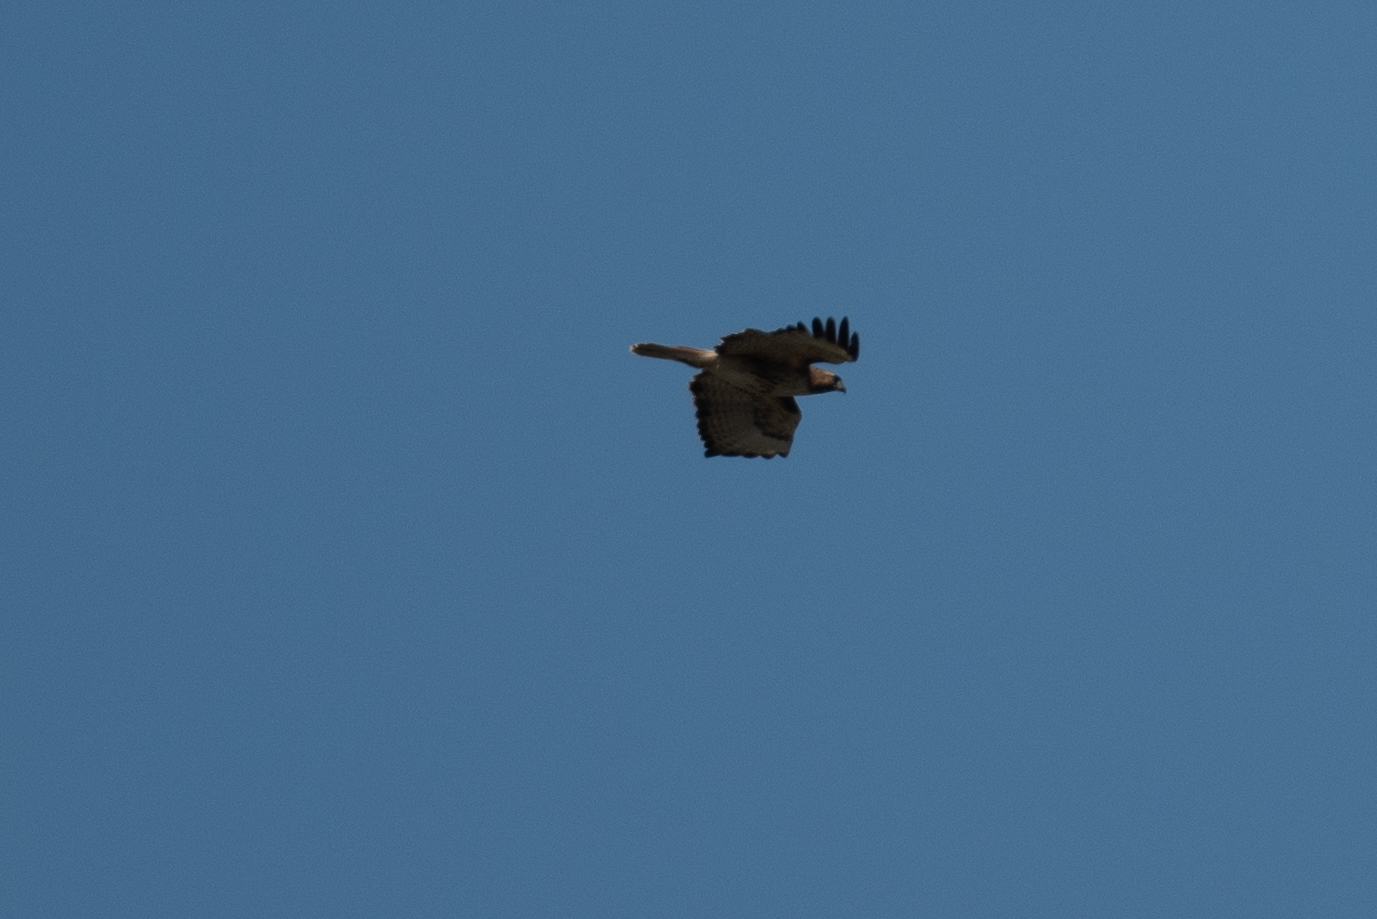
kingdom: Animalia
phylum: Chordata
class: Aves
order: Accipitriformes
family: Accipitridae
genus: Buteo
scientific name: Buteo jamaicensis
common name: Red-tailed hawk
